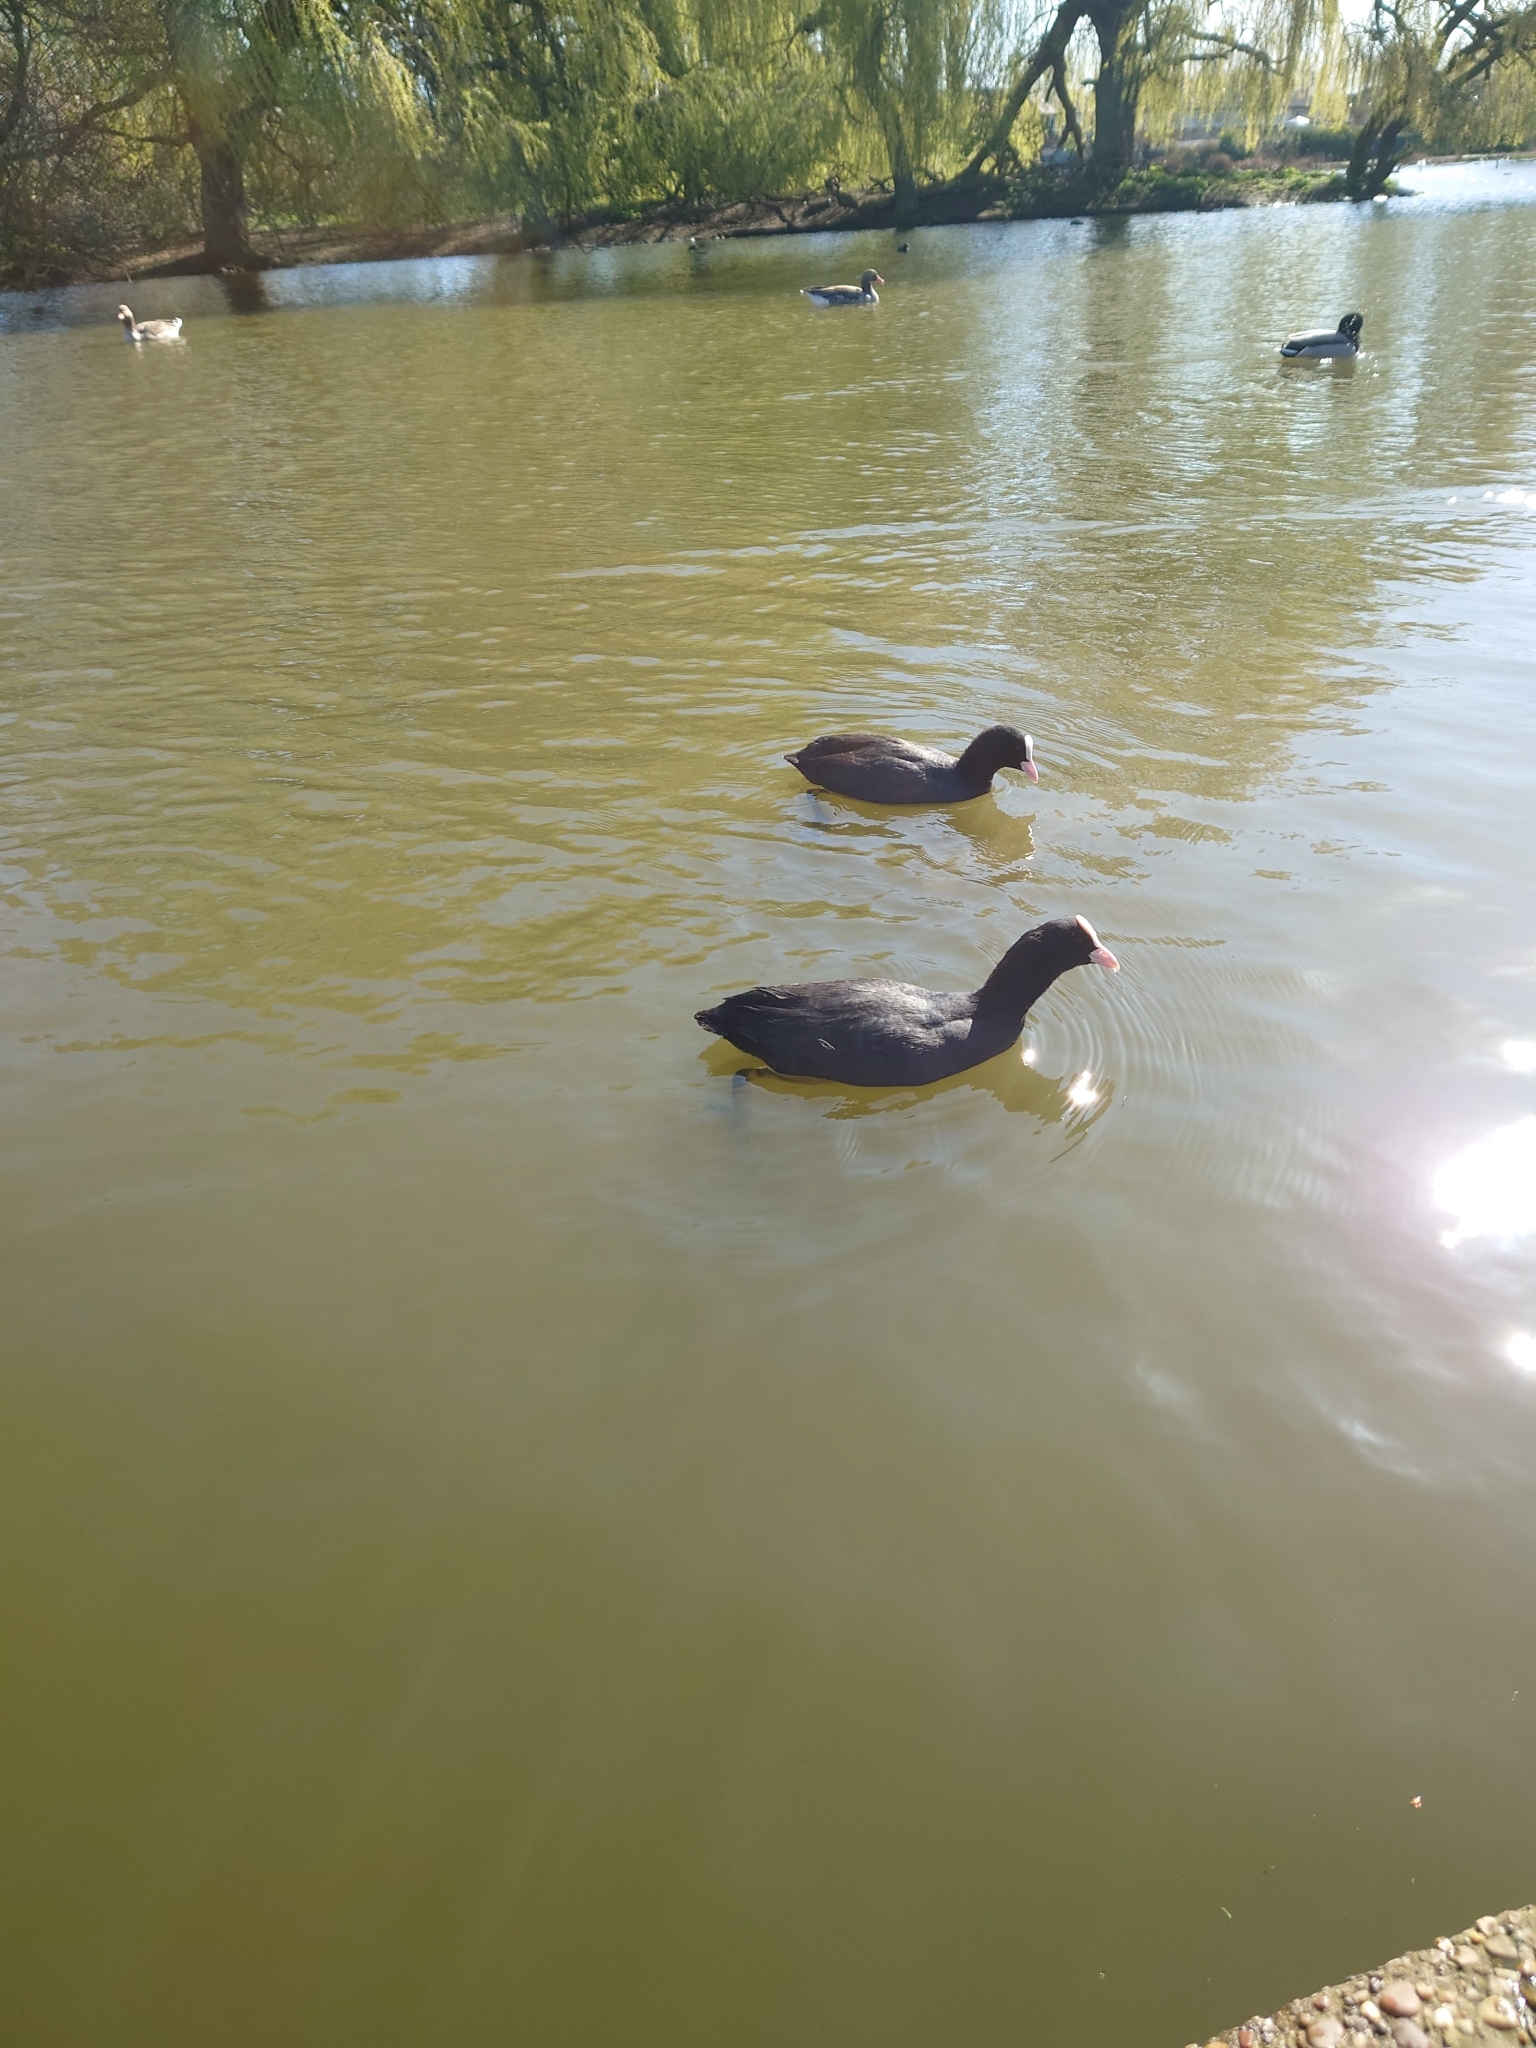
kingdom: Animalia
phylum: Chordata
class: Aves
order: Gruiformes
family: Rallidae
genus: Fulica
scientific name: Fulica atra
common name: Eurasian coot
